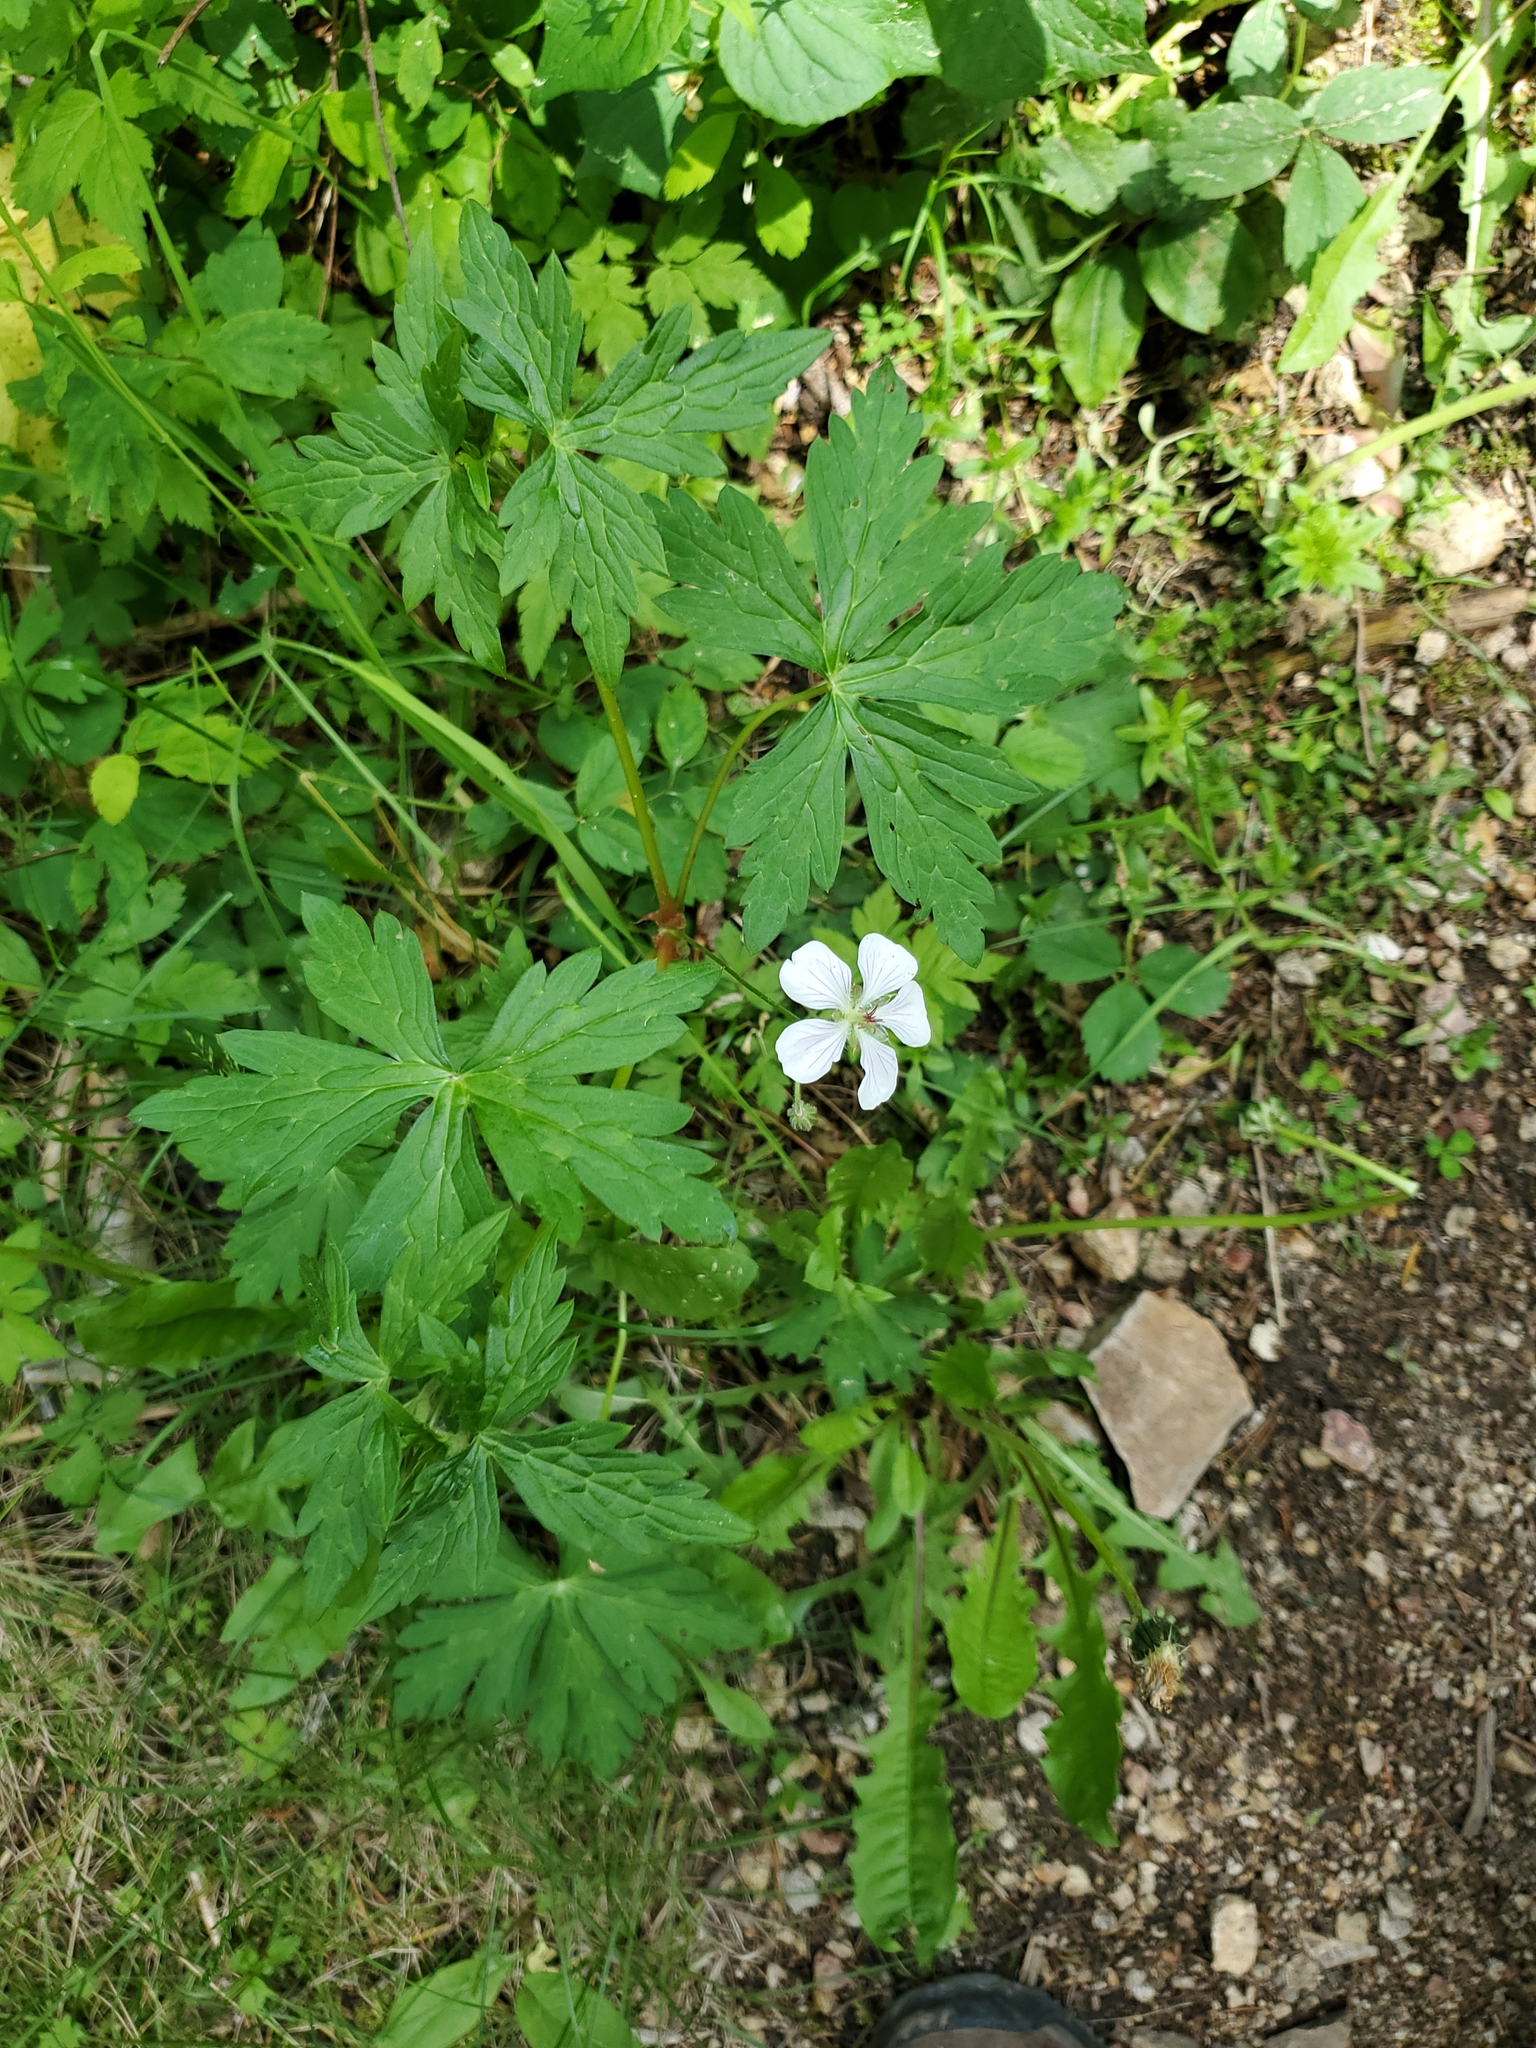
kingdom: Plantae
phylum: Tracheophyta
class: Magnoliopsida
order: Geraniales
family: Geraniaceae
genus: Geranium
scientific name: Geranium richardsonii
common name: Richardson's crane's-bill
